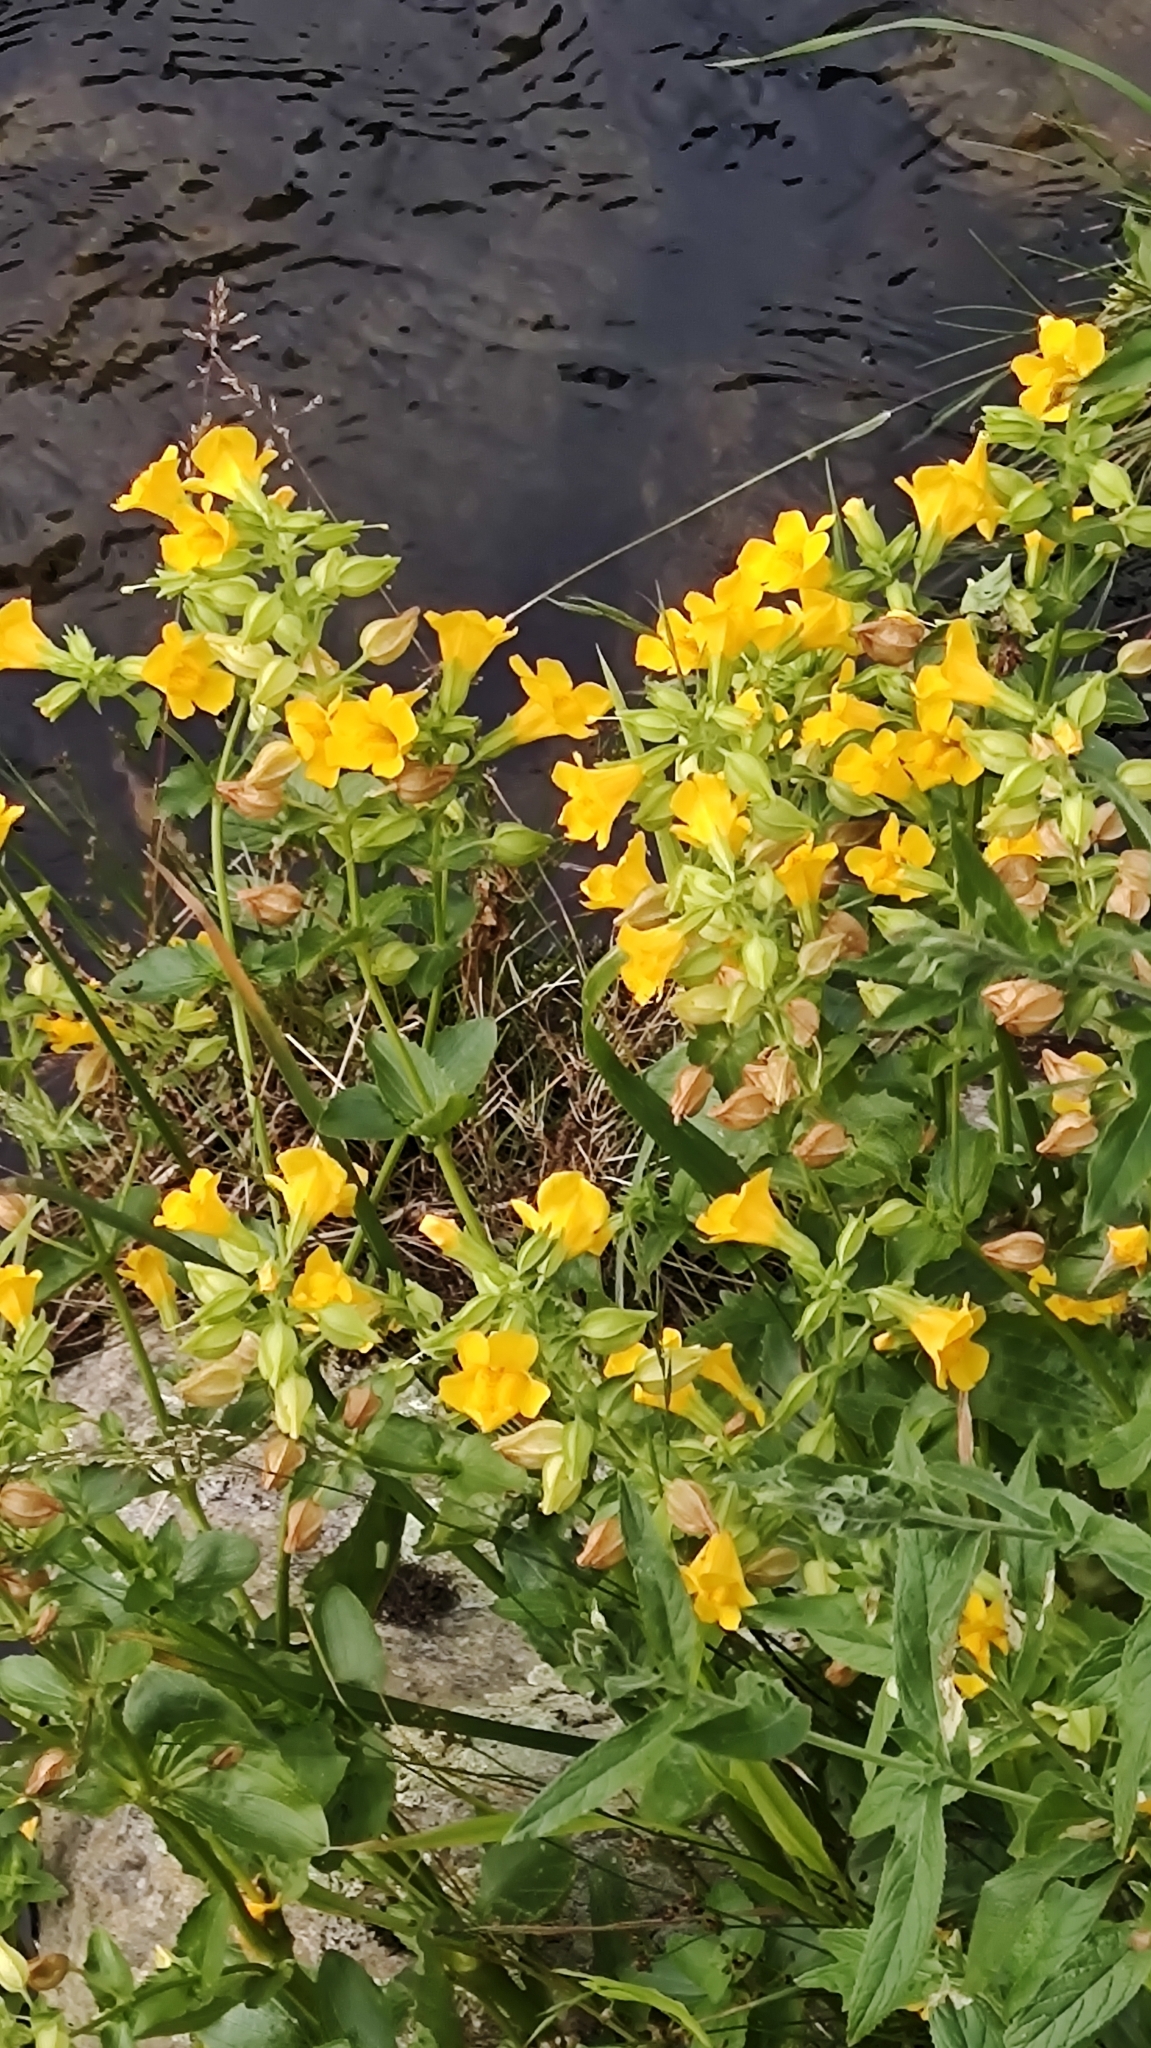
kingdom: Plantae
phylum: Tracheophyta
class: Magnoliopsida
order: Lamiales
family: Phrymaceae
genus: Erythranthe
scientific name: Erythranthe guttata
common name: Monkeyflower
